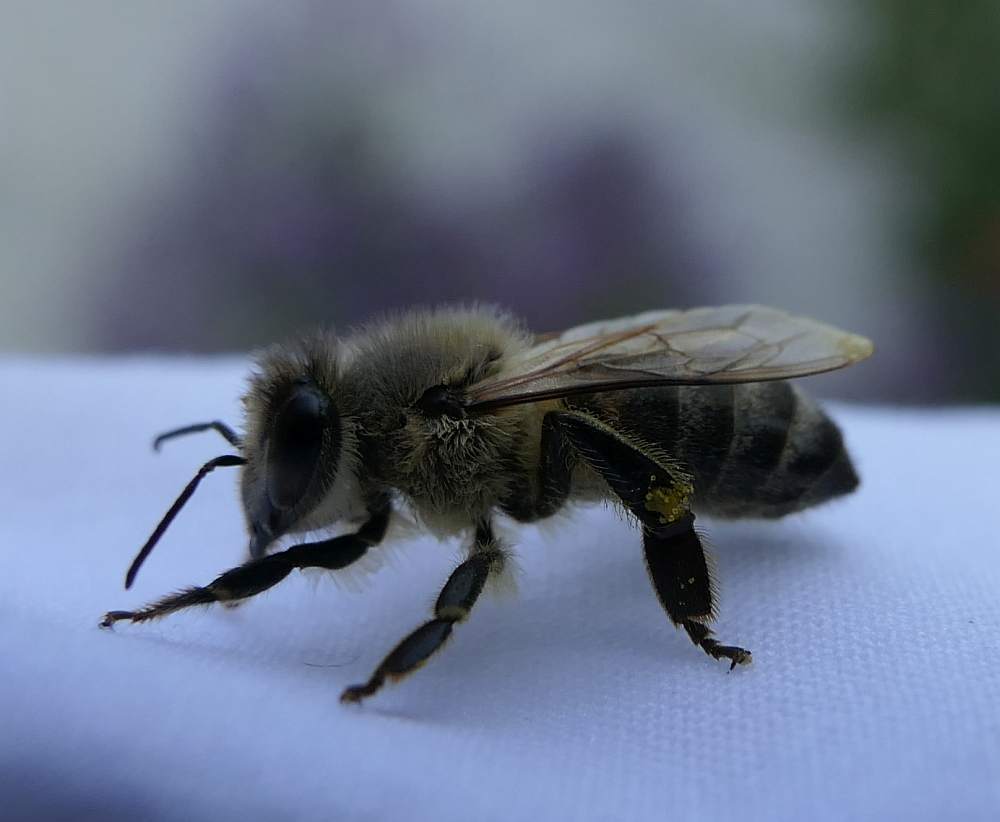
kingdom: Animalia
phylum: Arthropoda
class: Insecta
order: Hymenoptera
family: Apidae
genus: Apis
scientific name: Apis mellifera
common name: Honey bee
